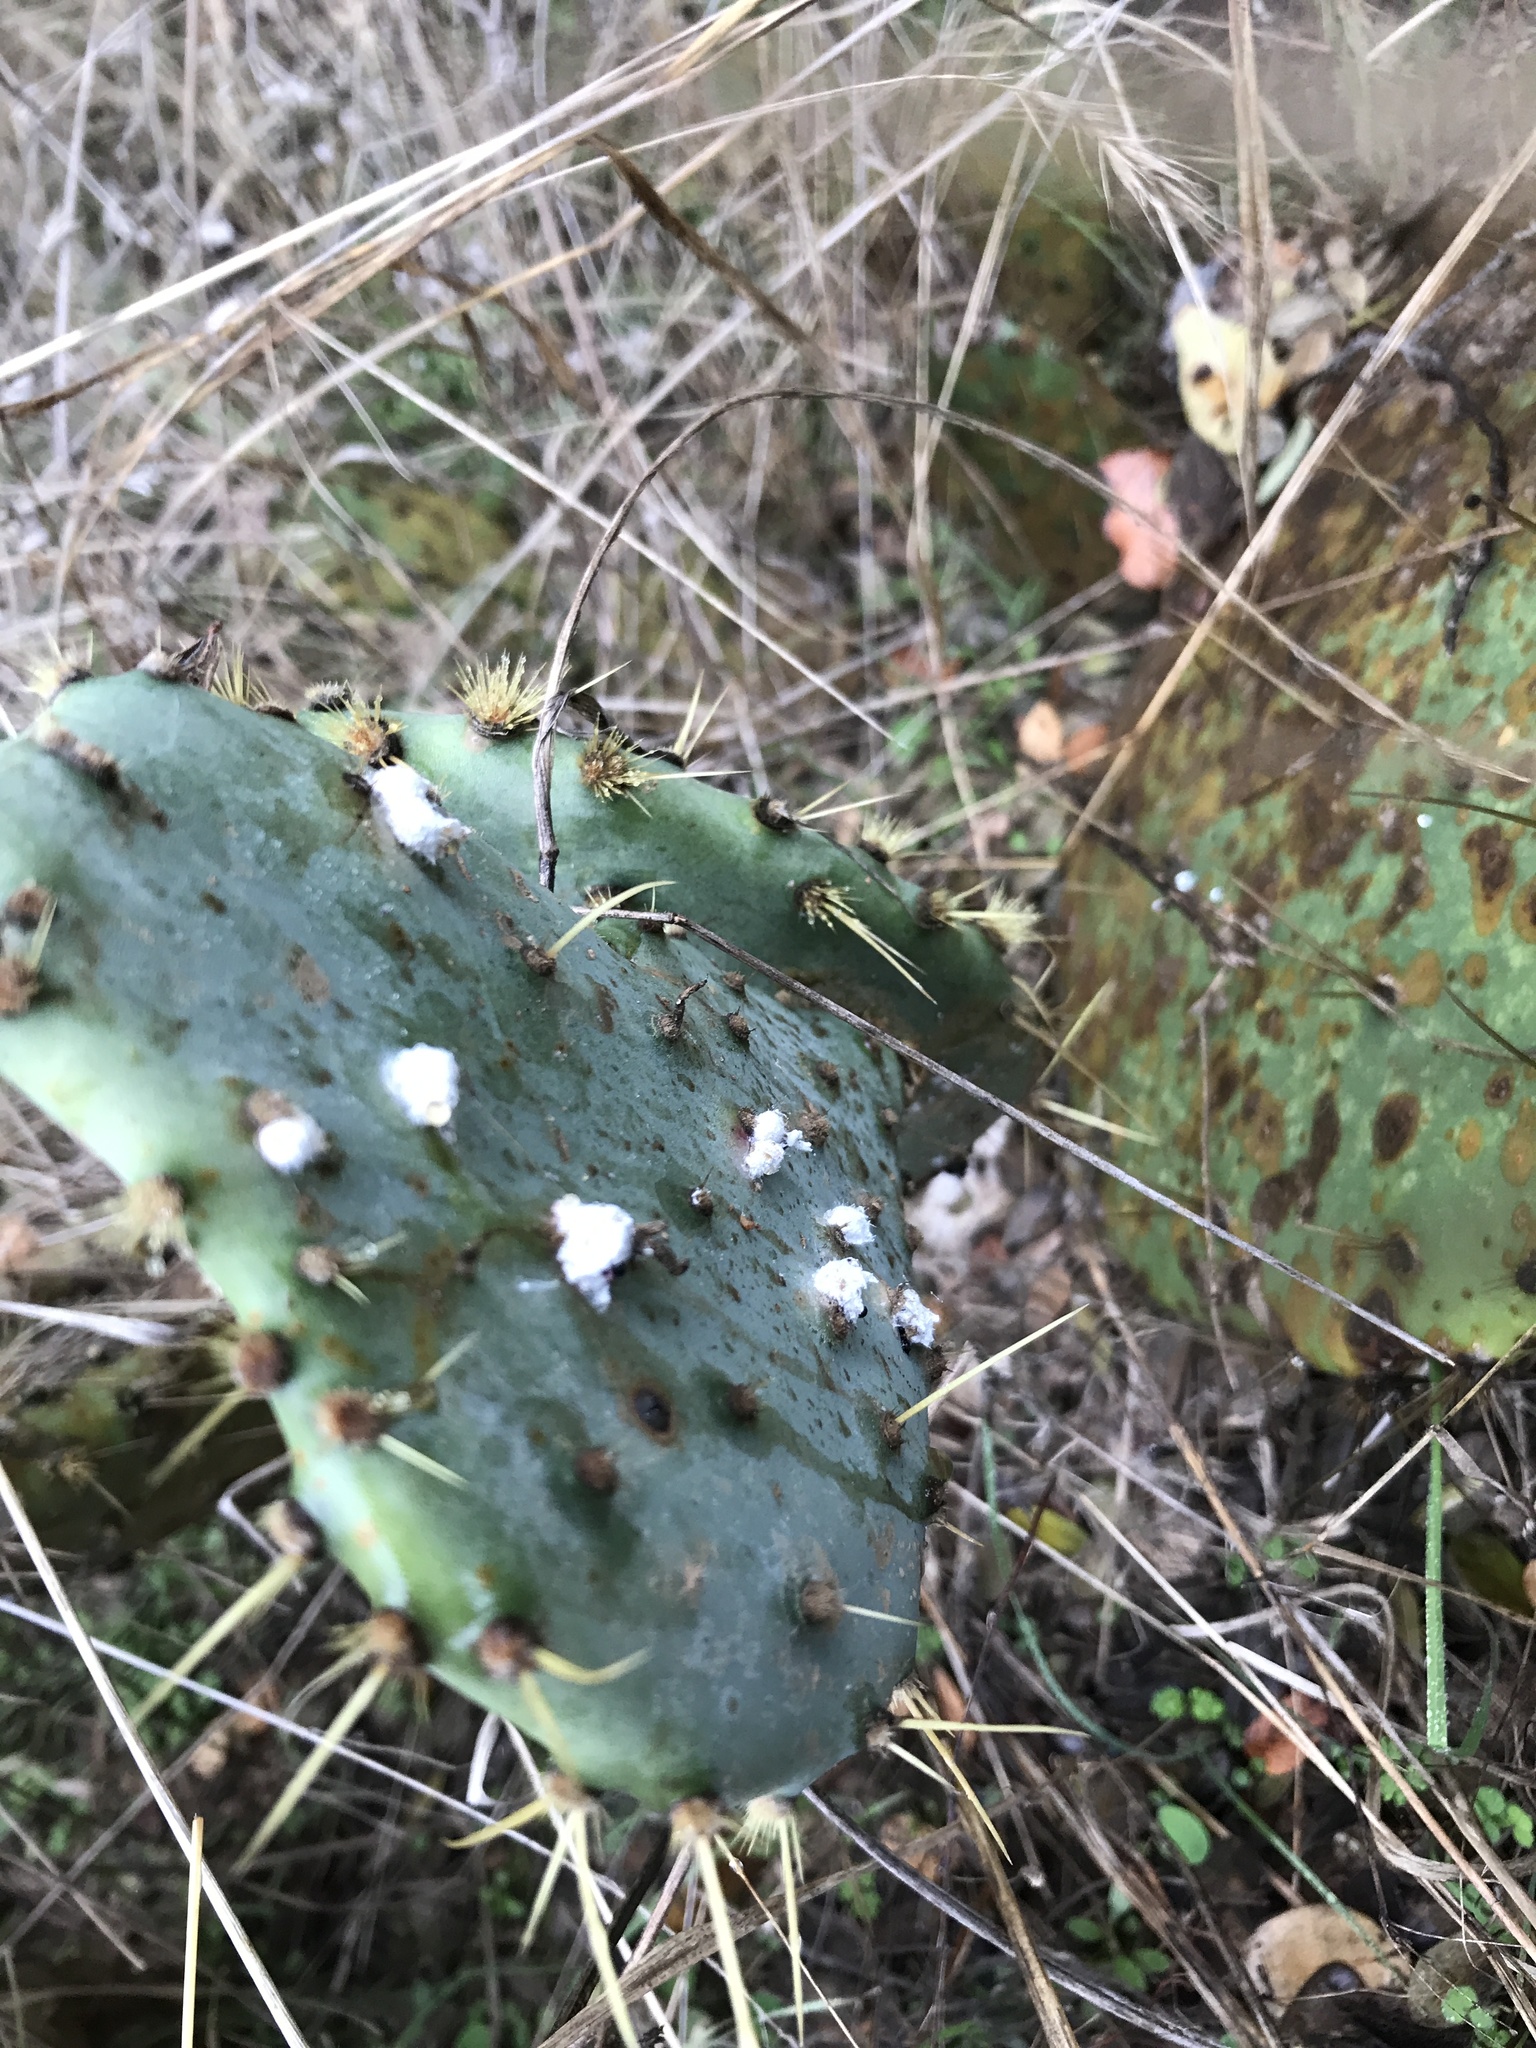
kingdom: Animalia
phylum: Arthropoda
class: Insecta
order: Hemiptera
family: Dactylopiidae
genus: Dactylopius
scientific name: Dactylopius opuntiae
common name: Opuntia cochineal scale
